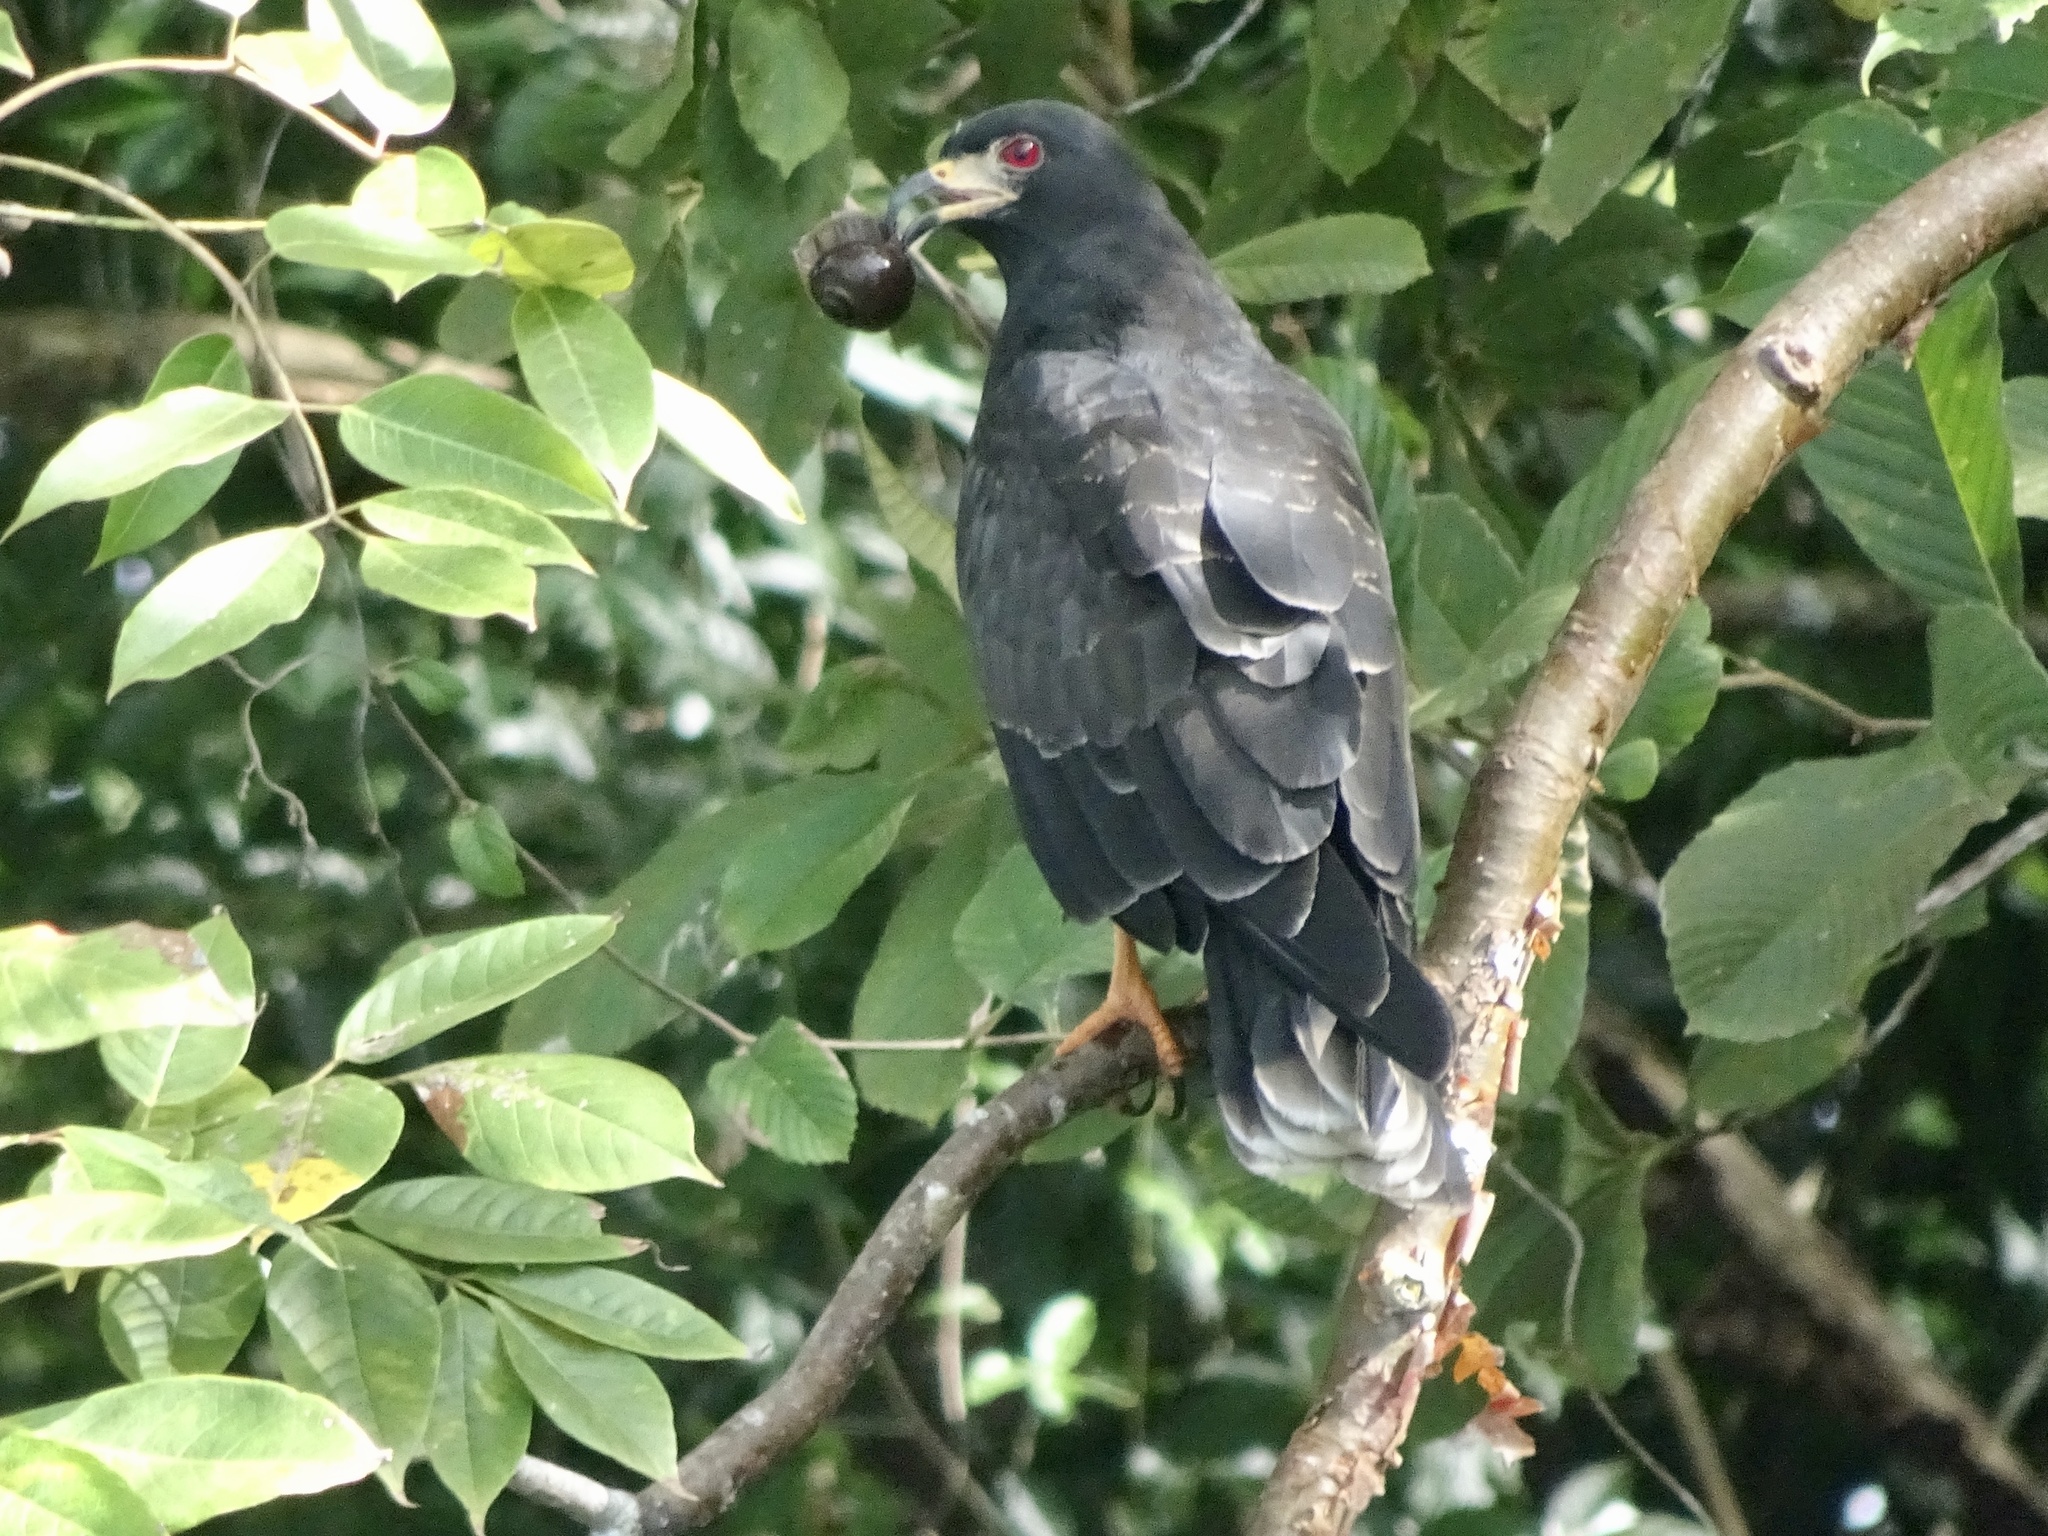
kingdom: Animalia
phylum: Chordata
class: Aves
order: Accipitriformes
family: Accipitridae
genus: Rostrhamus
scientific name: Rostrhamus sociabilis
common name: Snail kite
